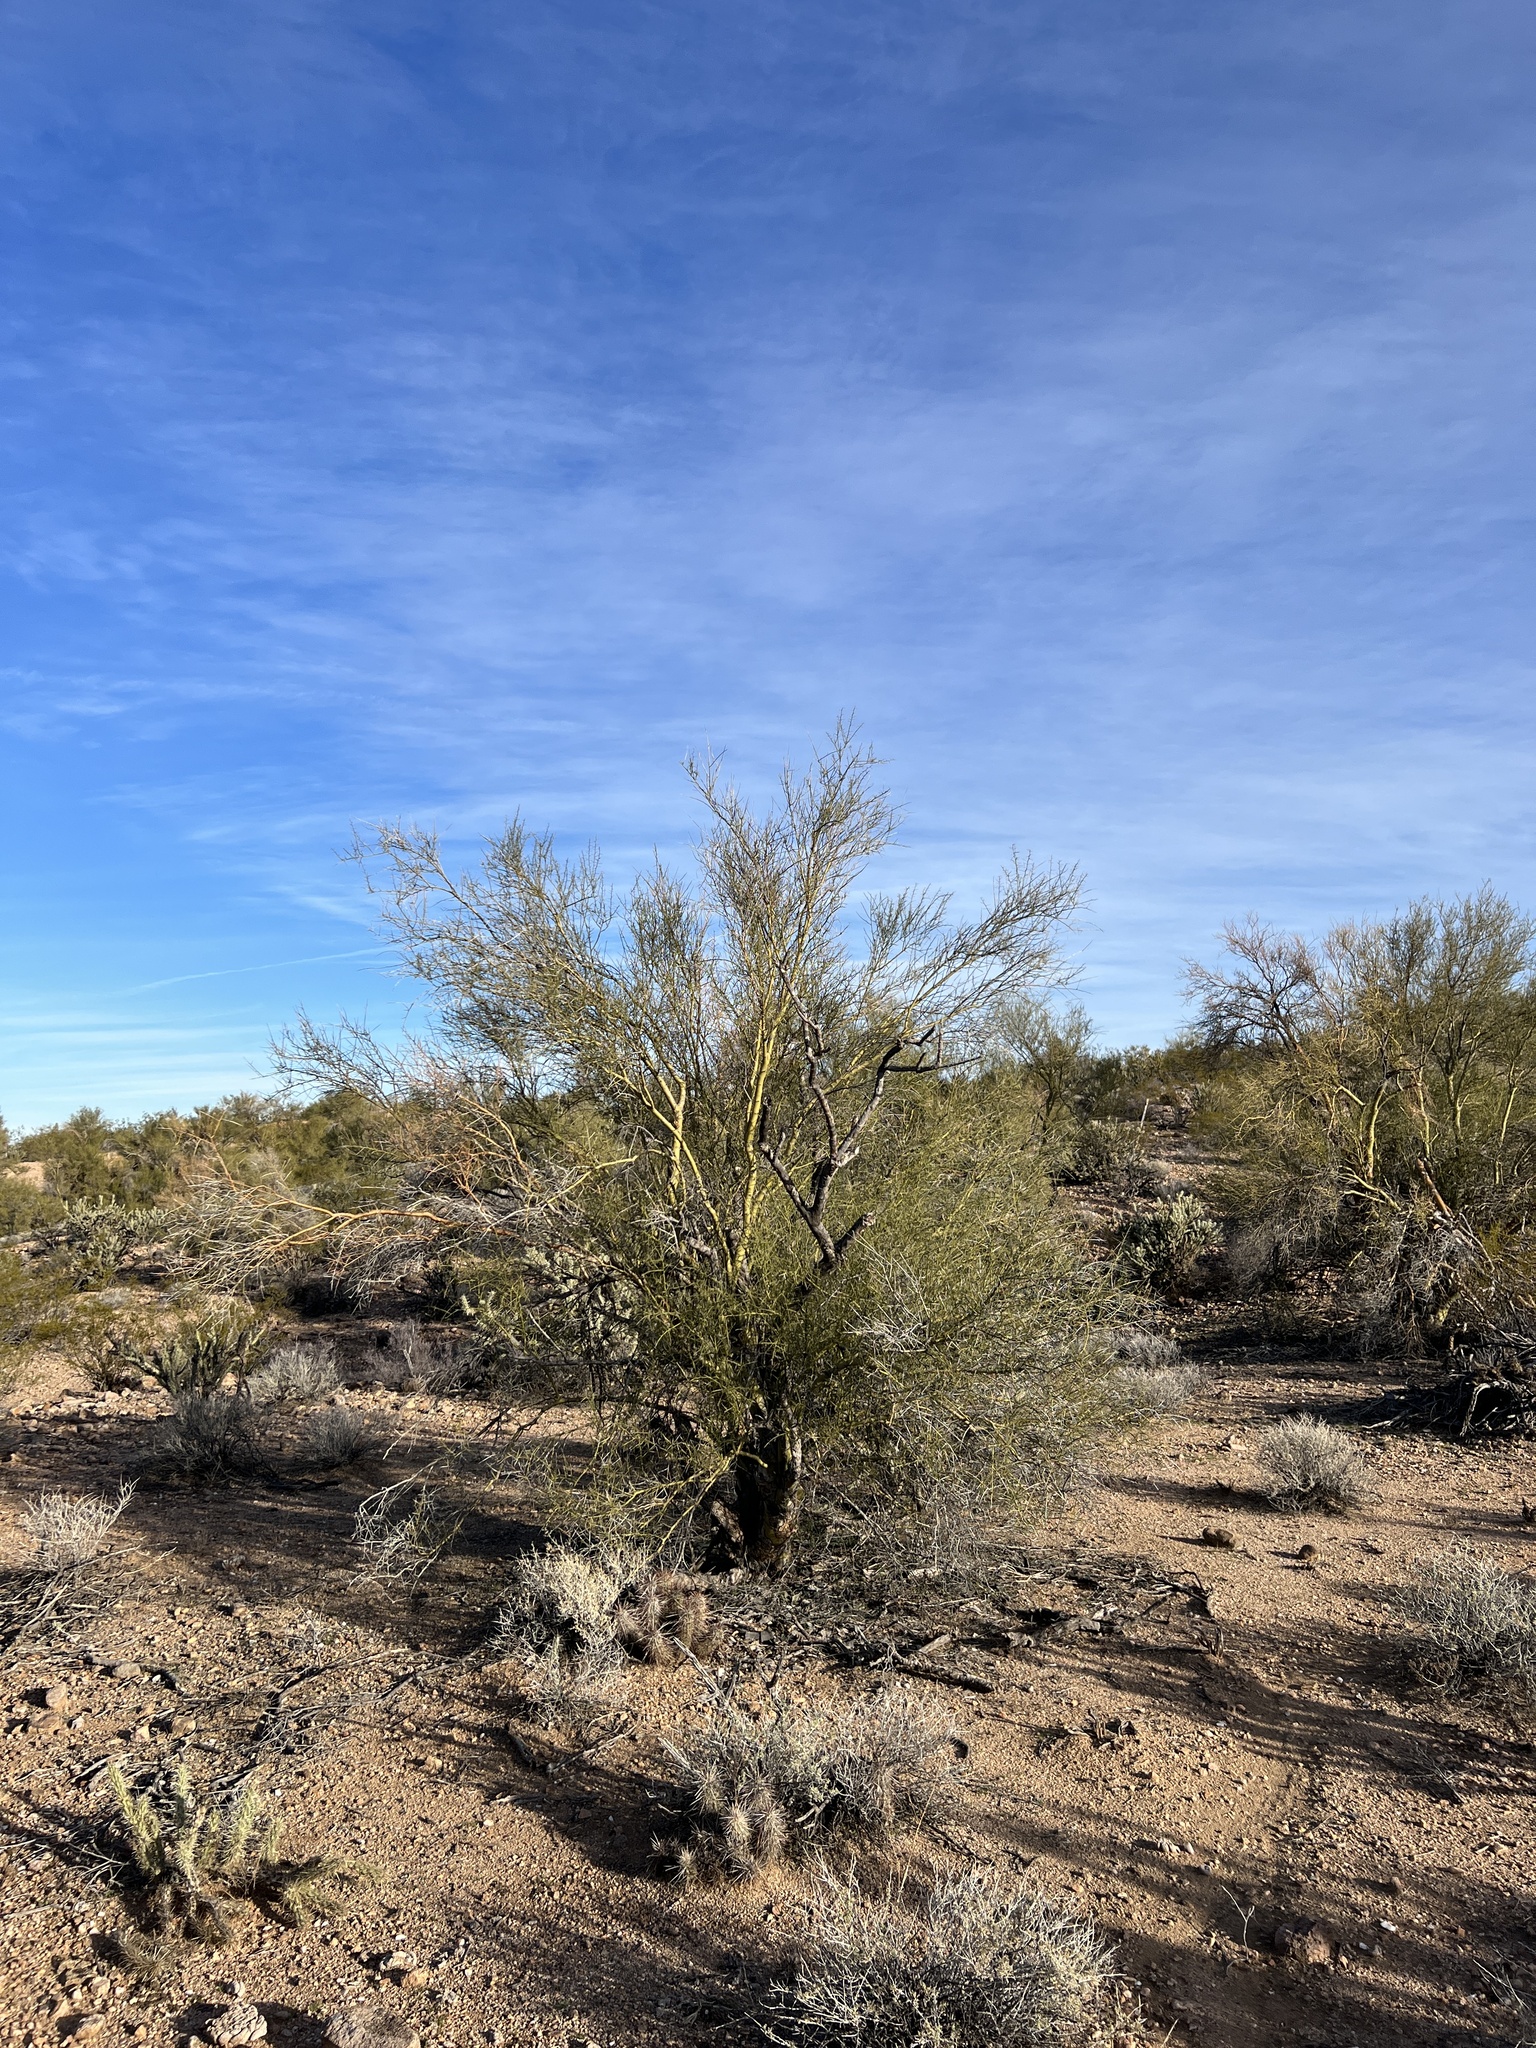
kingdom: Plantae
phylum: Tracheophyta
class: Magnoliopsida
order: Fabales
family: Fabaceae
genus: Parkinsonia
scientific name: Parkinsonia microphylla
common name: Yellow paloverde
